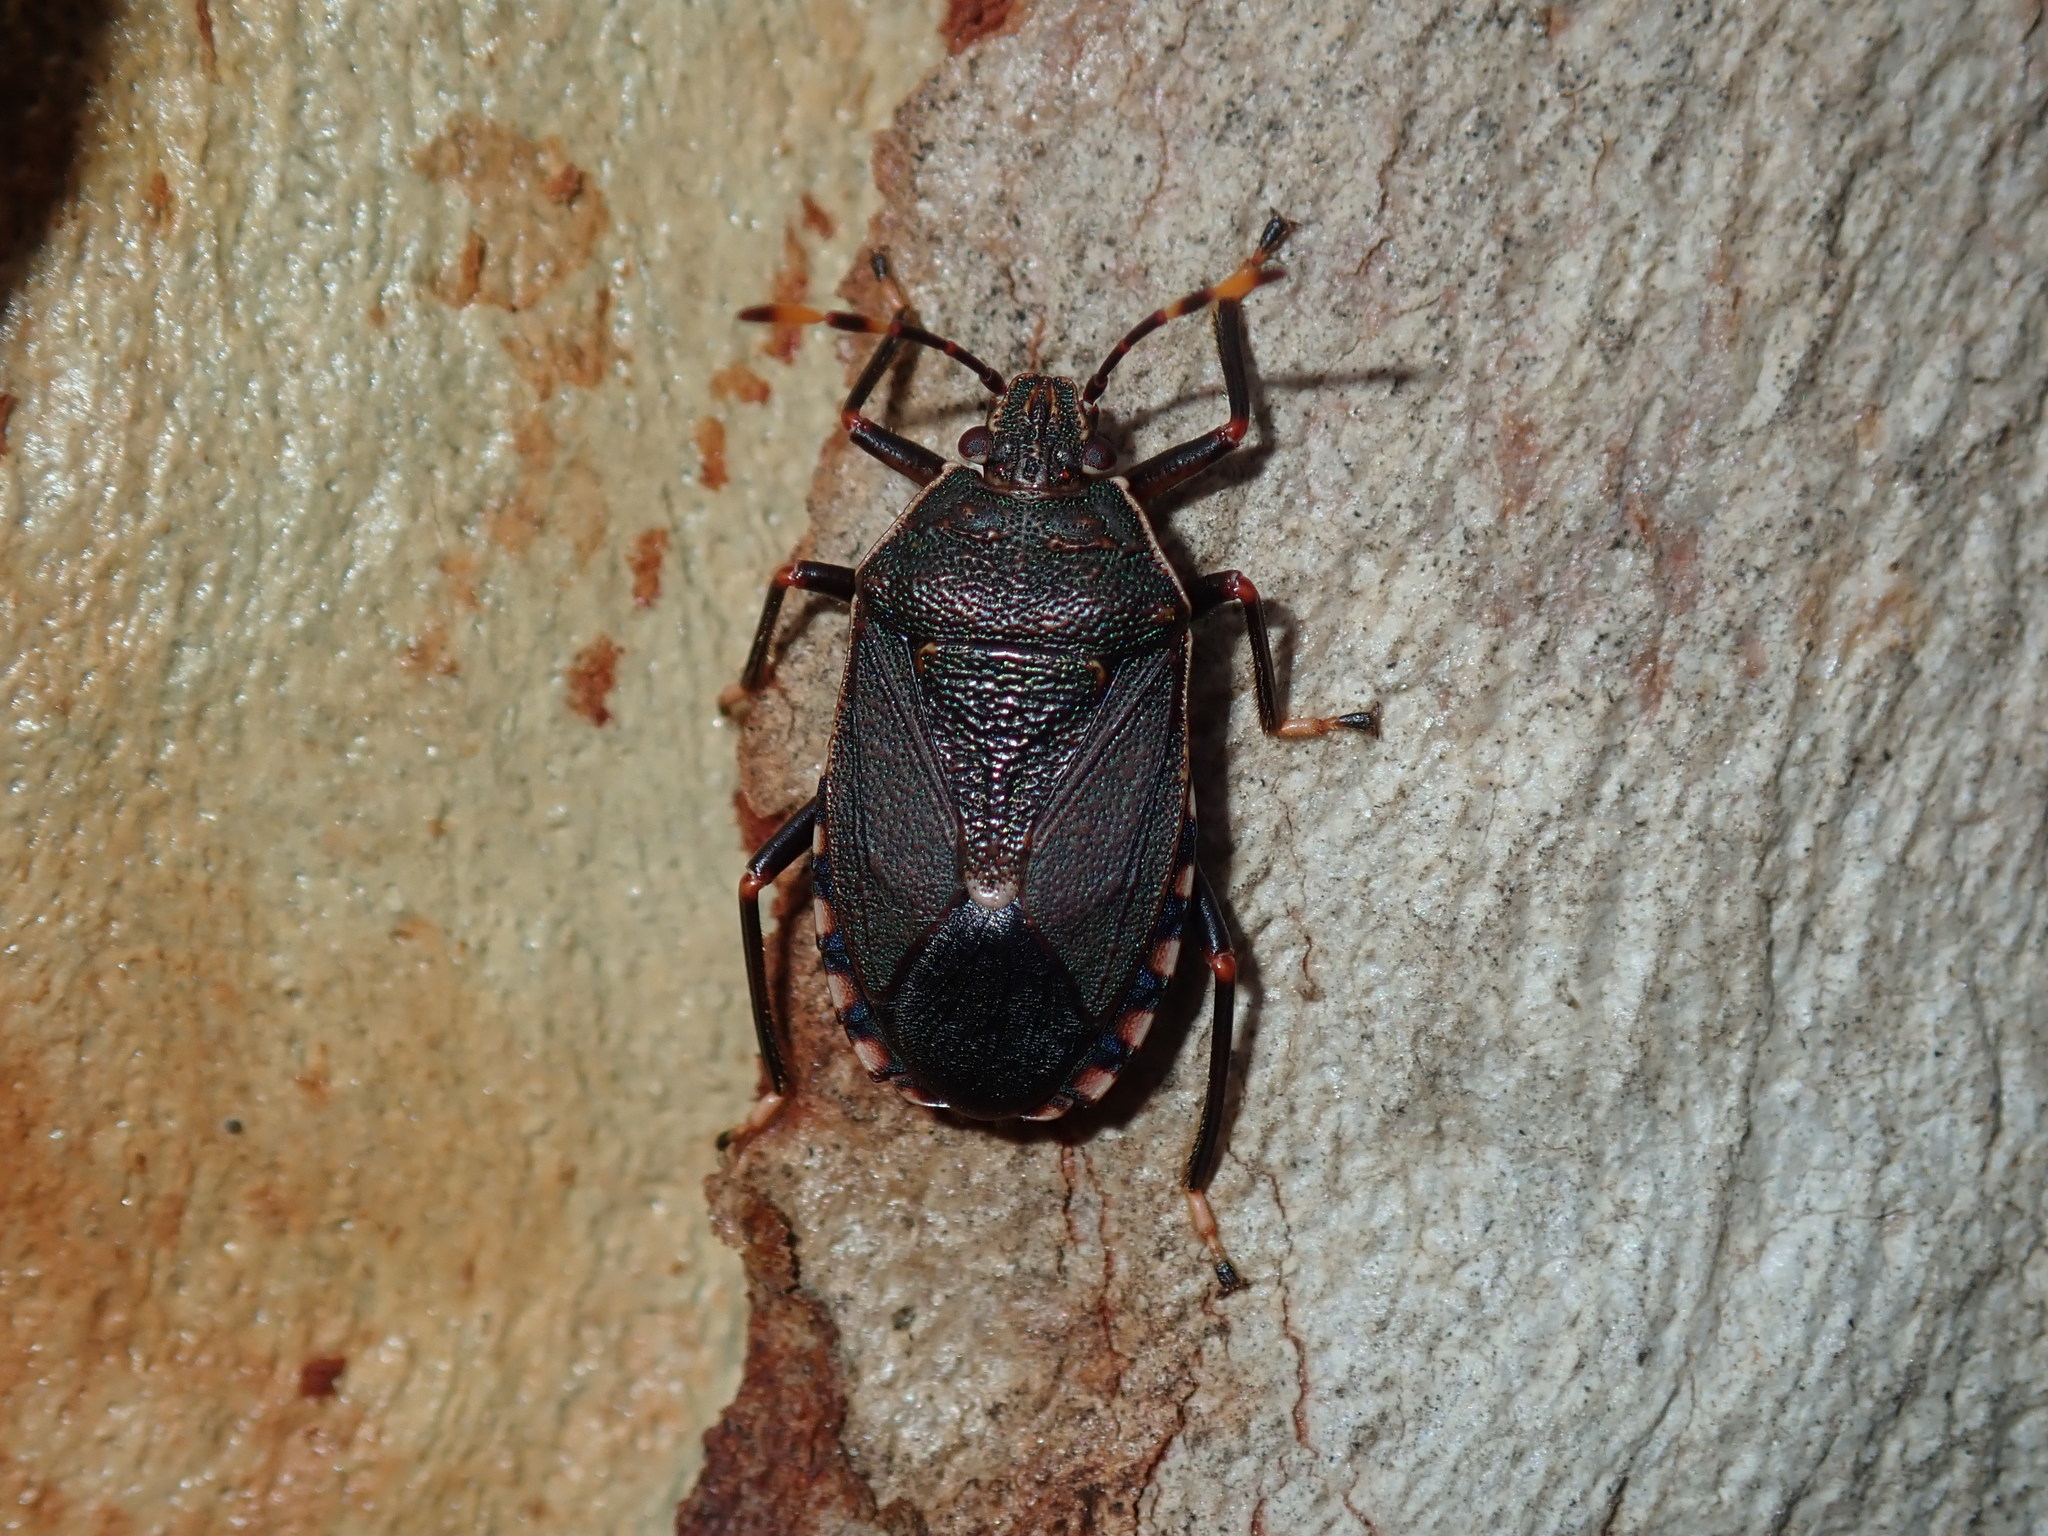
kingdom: Animalia
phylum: Arthropoda
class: Insecta
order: Hemiptera
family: Pentatomidae
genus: Notius
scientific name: Notius
